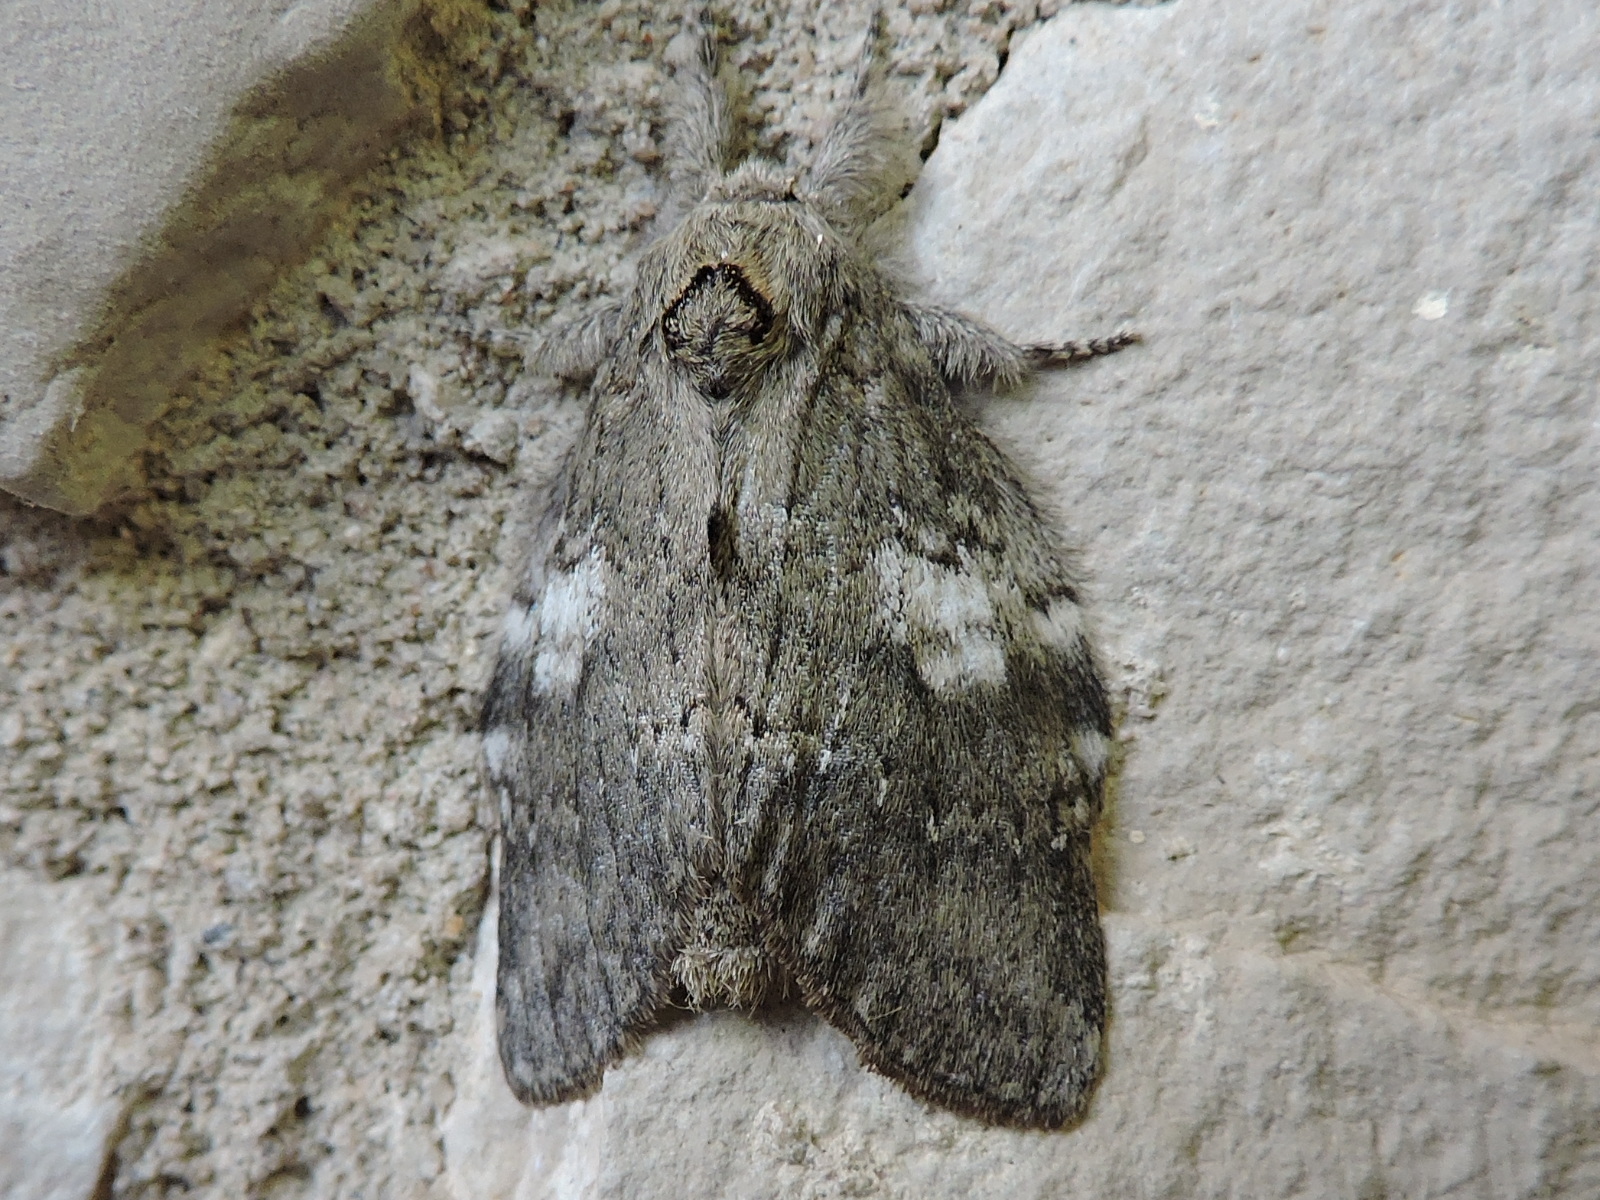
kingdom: Animalia
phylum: Arthropoda
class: Insecta
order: Lepidoptera
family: Notodontidae
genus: Peridea
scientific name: Peridea angulosa
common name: Angulose prominent
